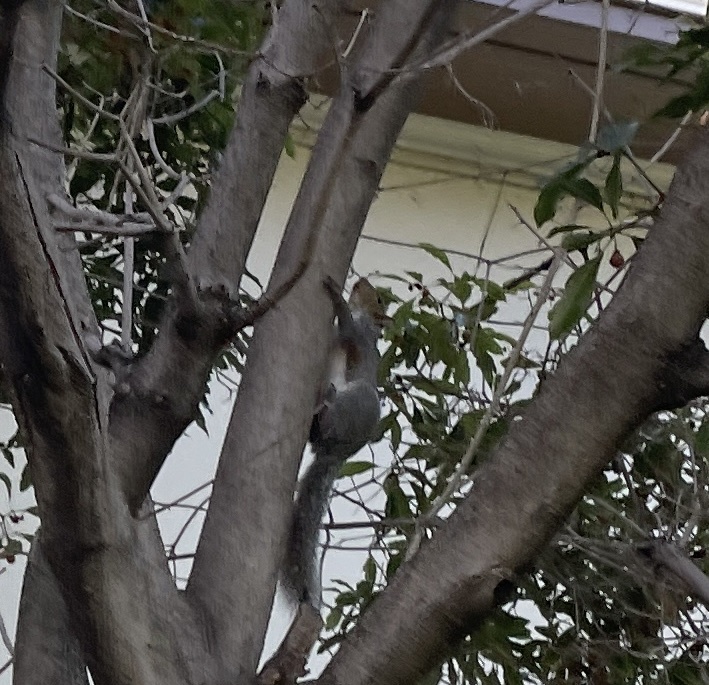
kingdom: Animalia
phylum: Chordata
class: Mammalia
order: Rodentia
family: Sciuridae
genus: Sciurus
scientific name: Sciurus carolinensis
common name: Eastern gray squirrel
